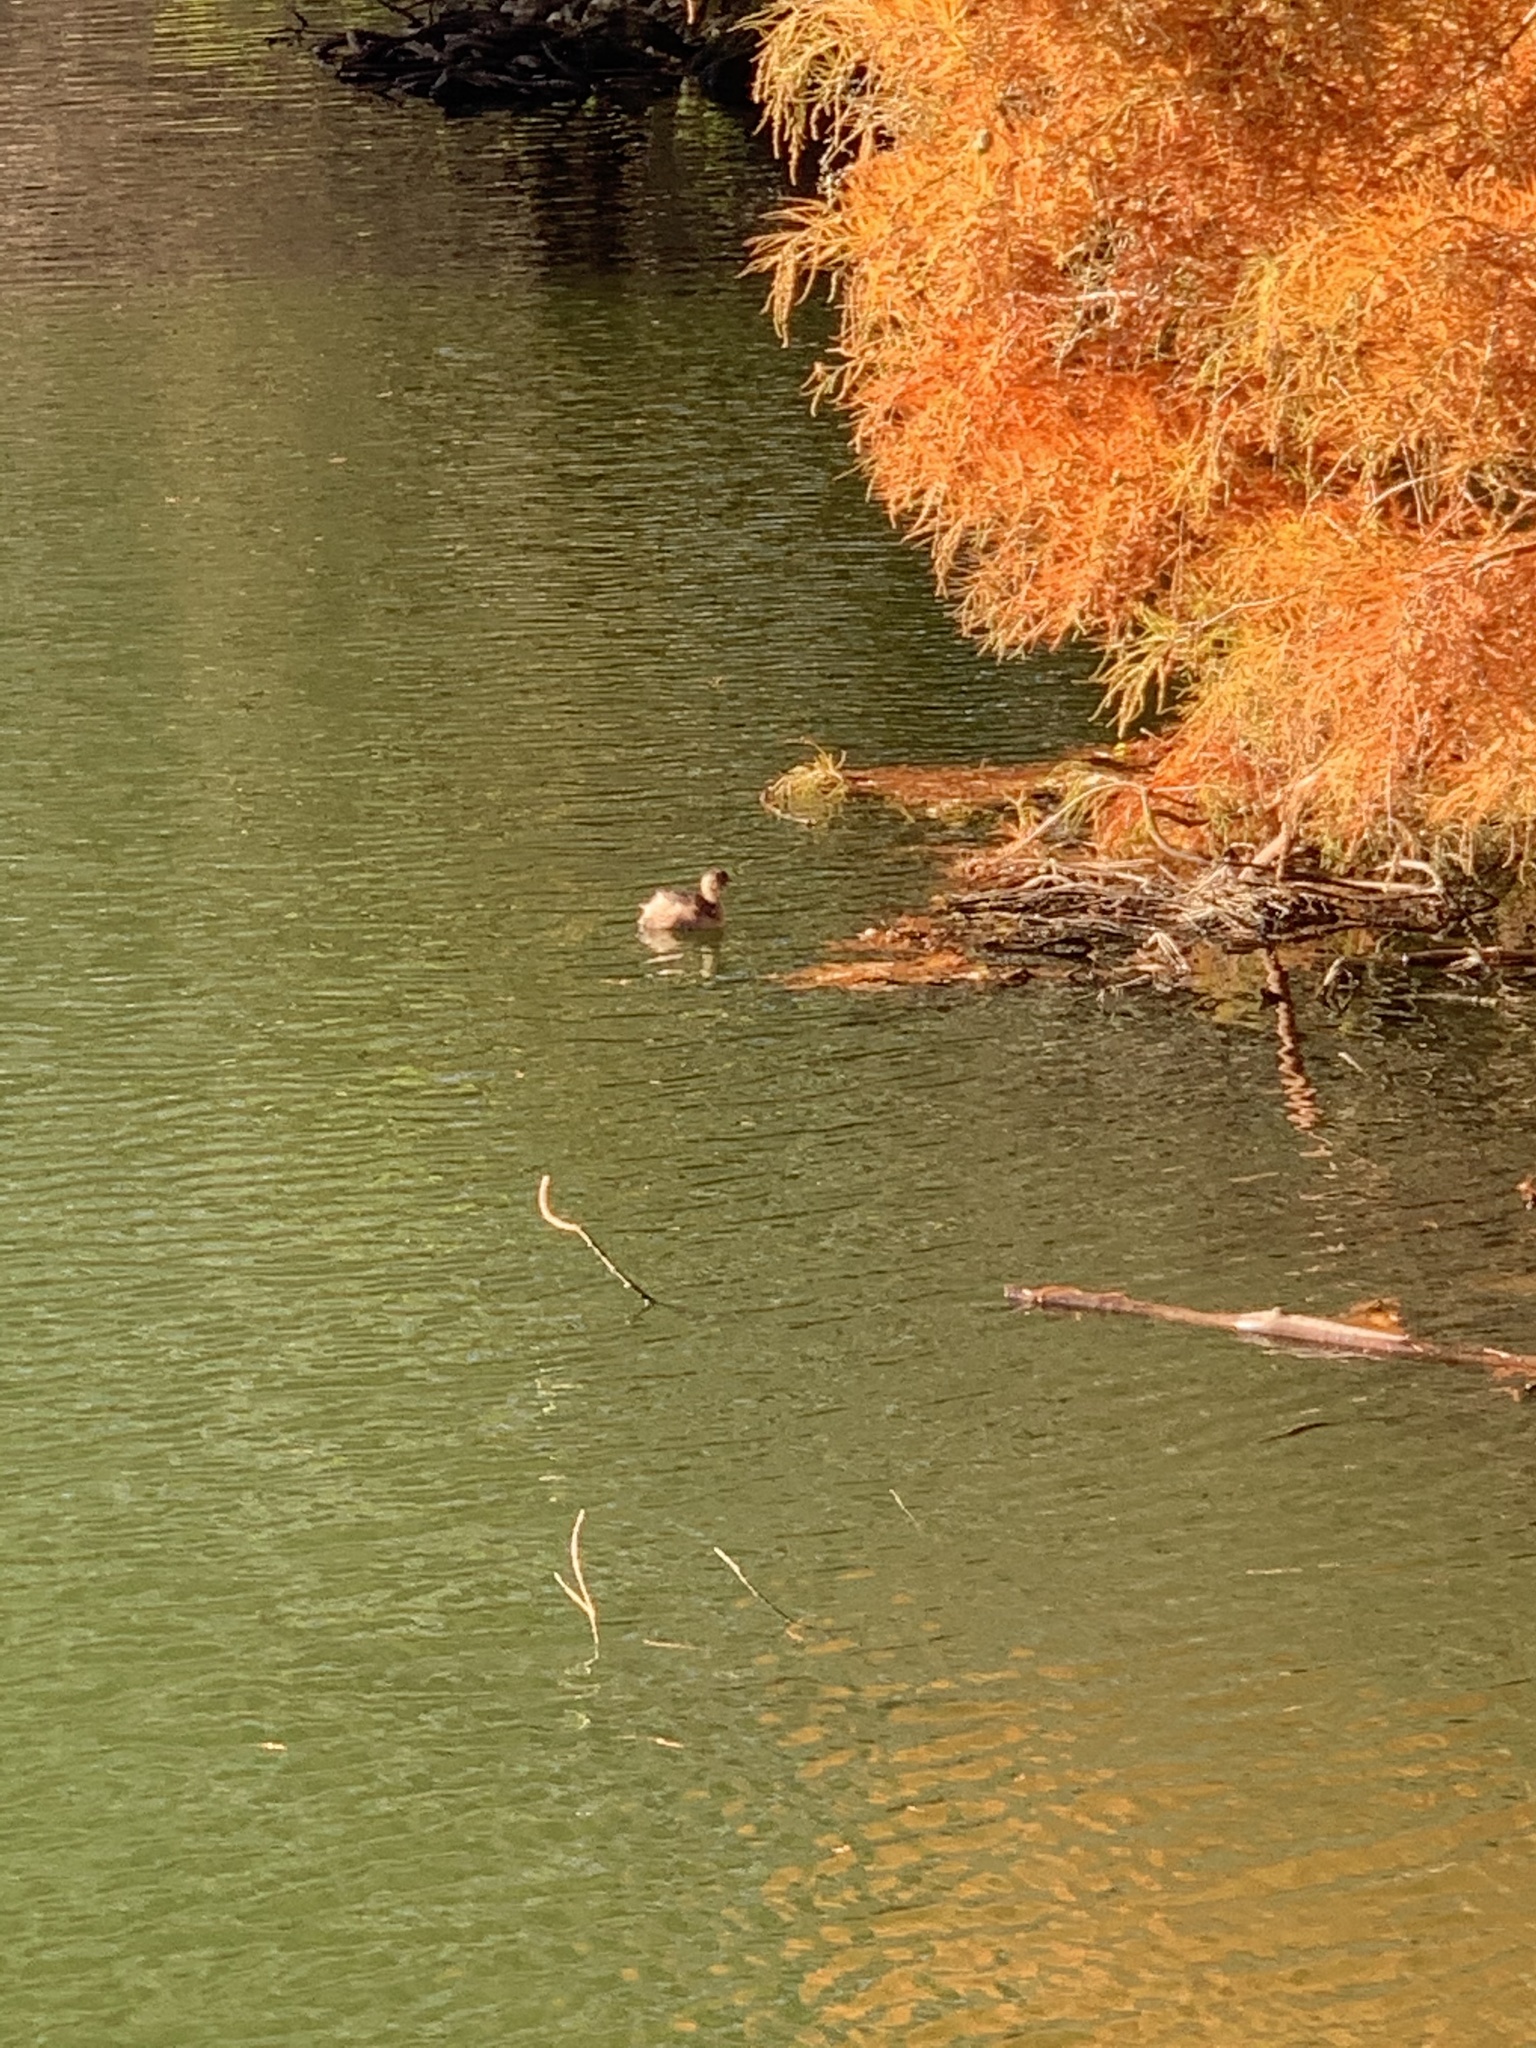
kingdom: Animalia
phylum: Chordata
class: Aves
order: Podicipediformes
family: Podicipedidae
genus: Tachybaptus
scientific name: Tachybaptus ruficollis
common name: Little grebe
